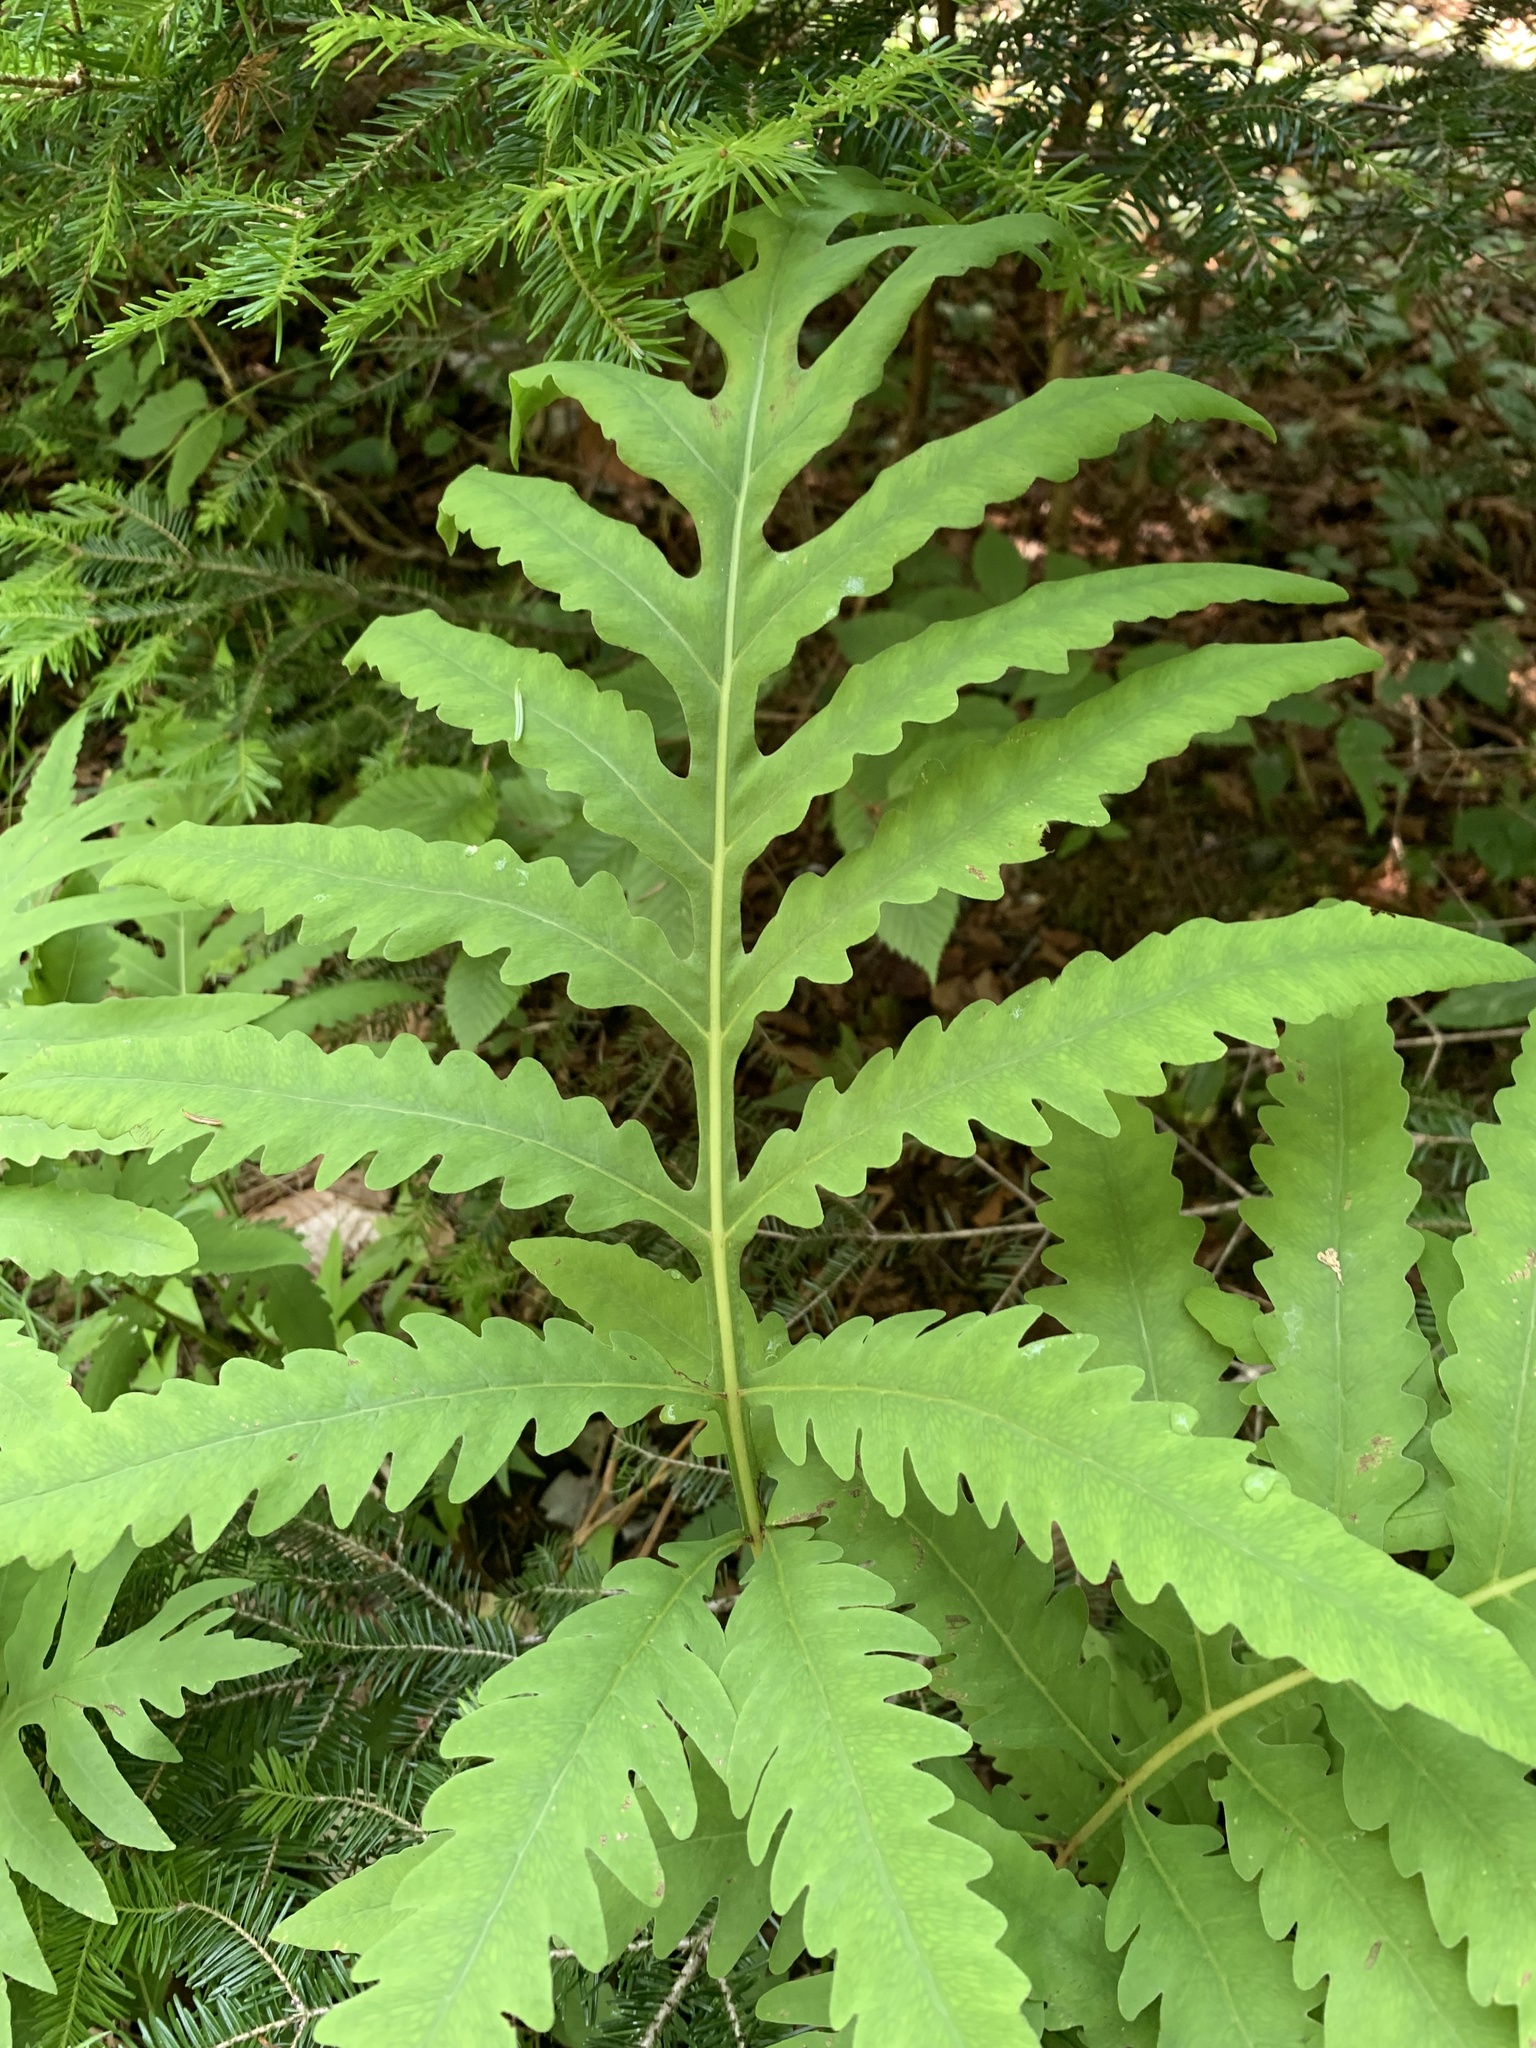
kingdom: Plantae
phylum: Tracheophyta
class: Polypodiopsida
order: Polypodiales
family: Onocleaceae
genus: Onoclea
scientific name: Onoclea sensibilis
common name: Sensitive fern
